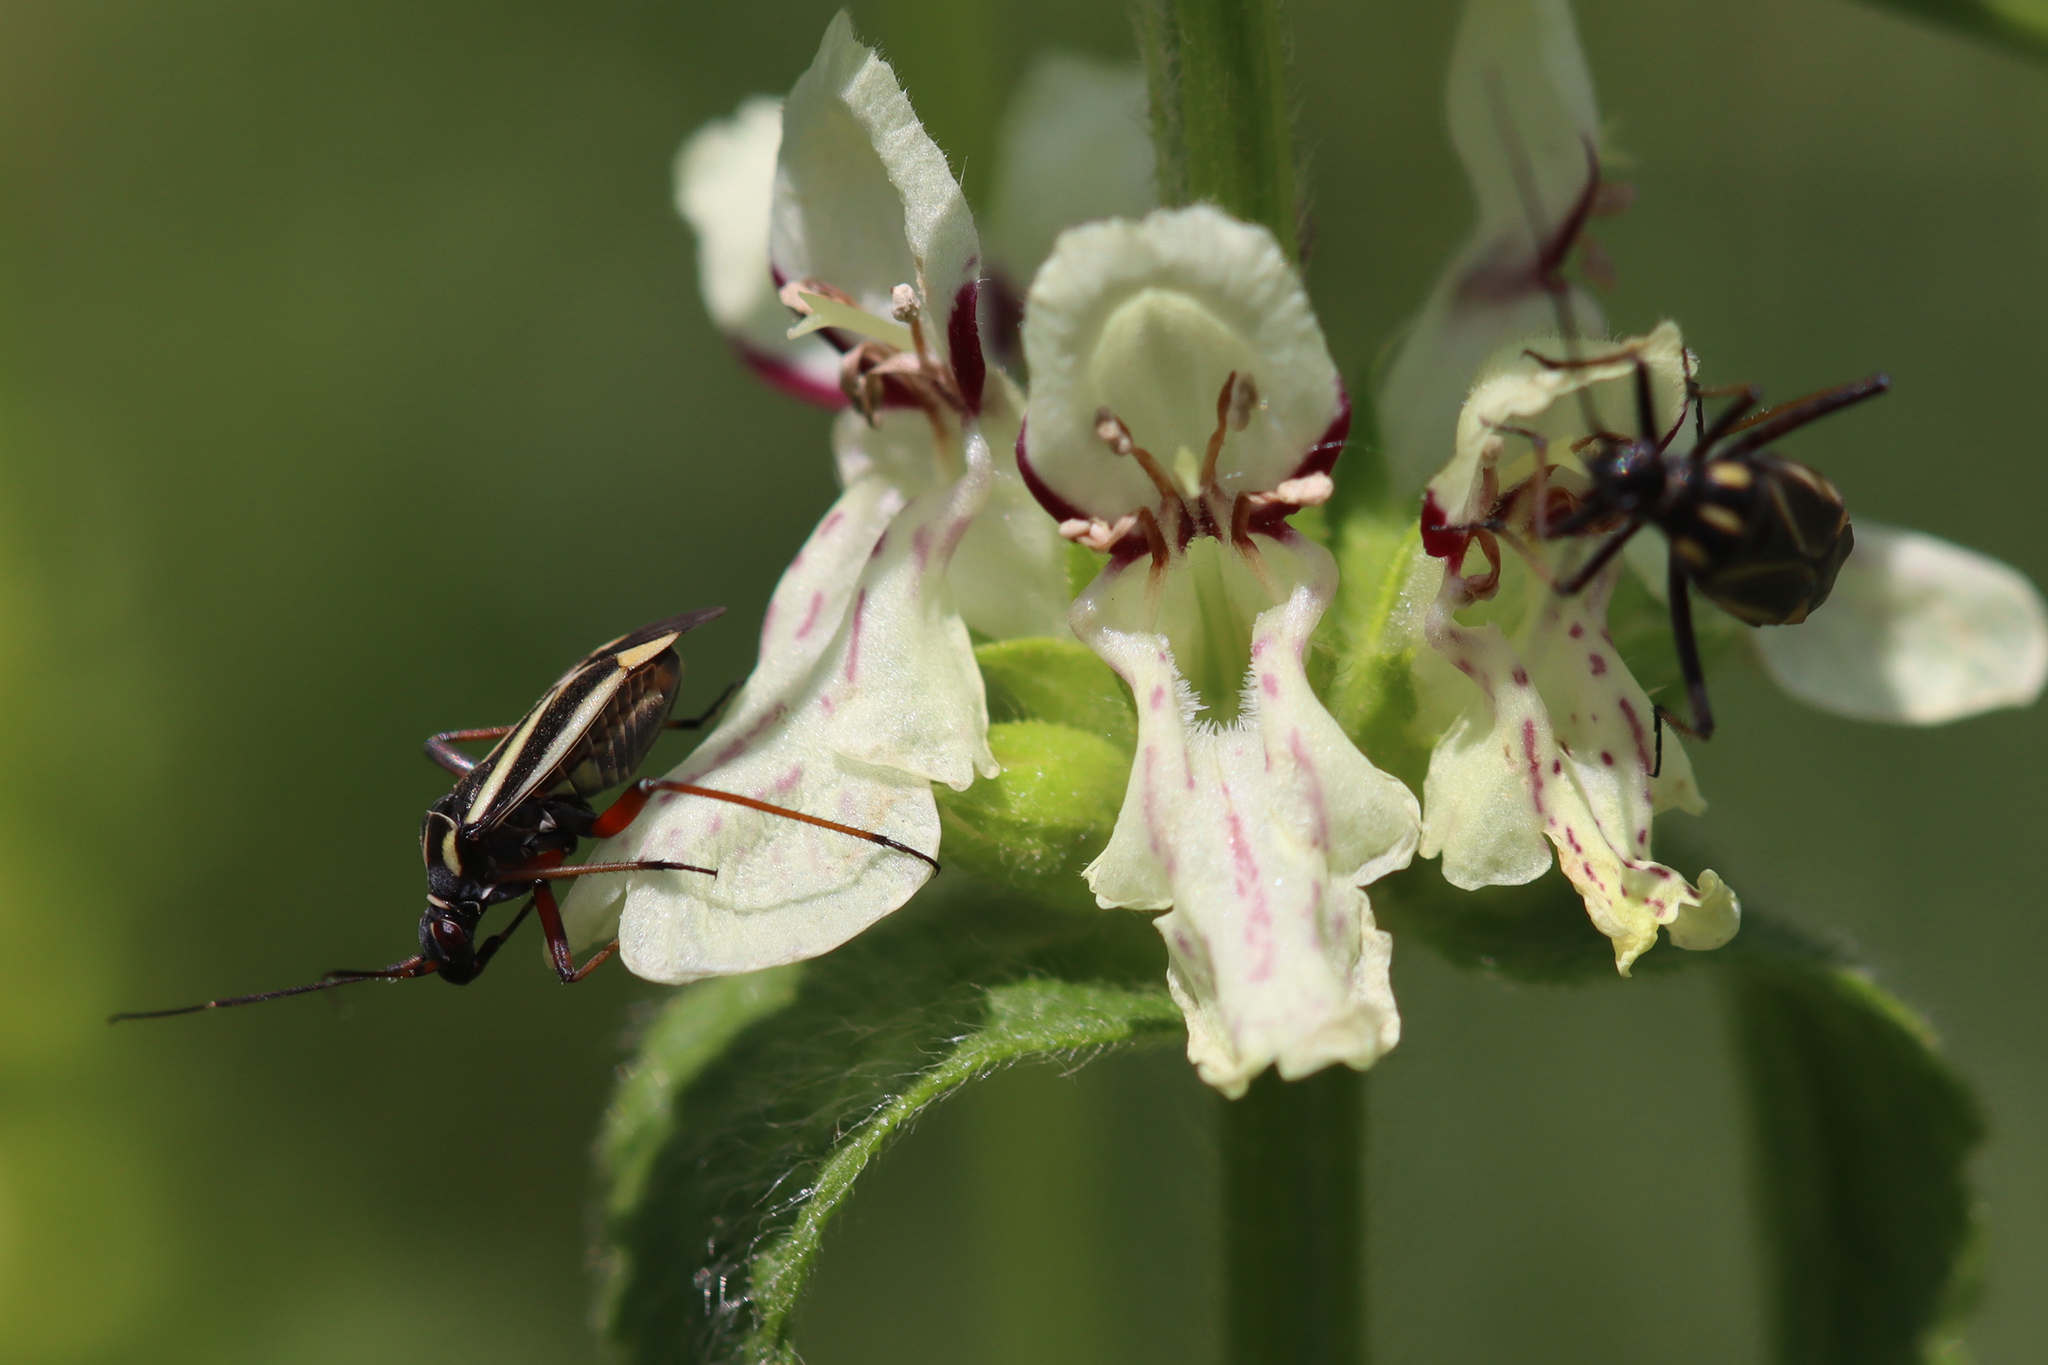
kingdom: Animalia
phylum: Arthropoda
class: Insecta
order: Hemiptera
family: Miridae
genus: Hadrodemus
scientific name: Hadrodemus m-flavum
